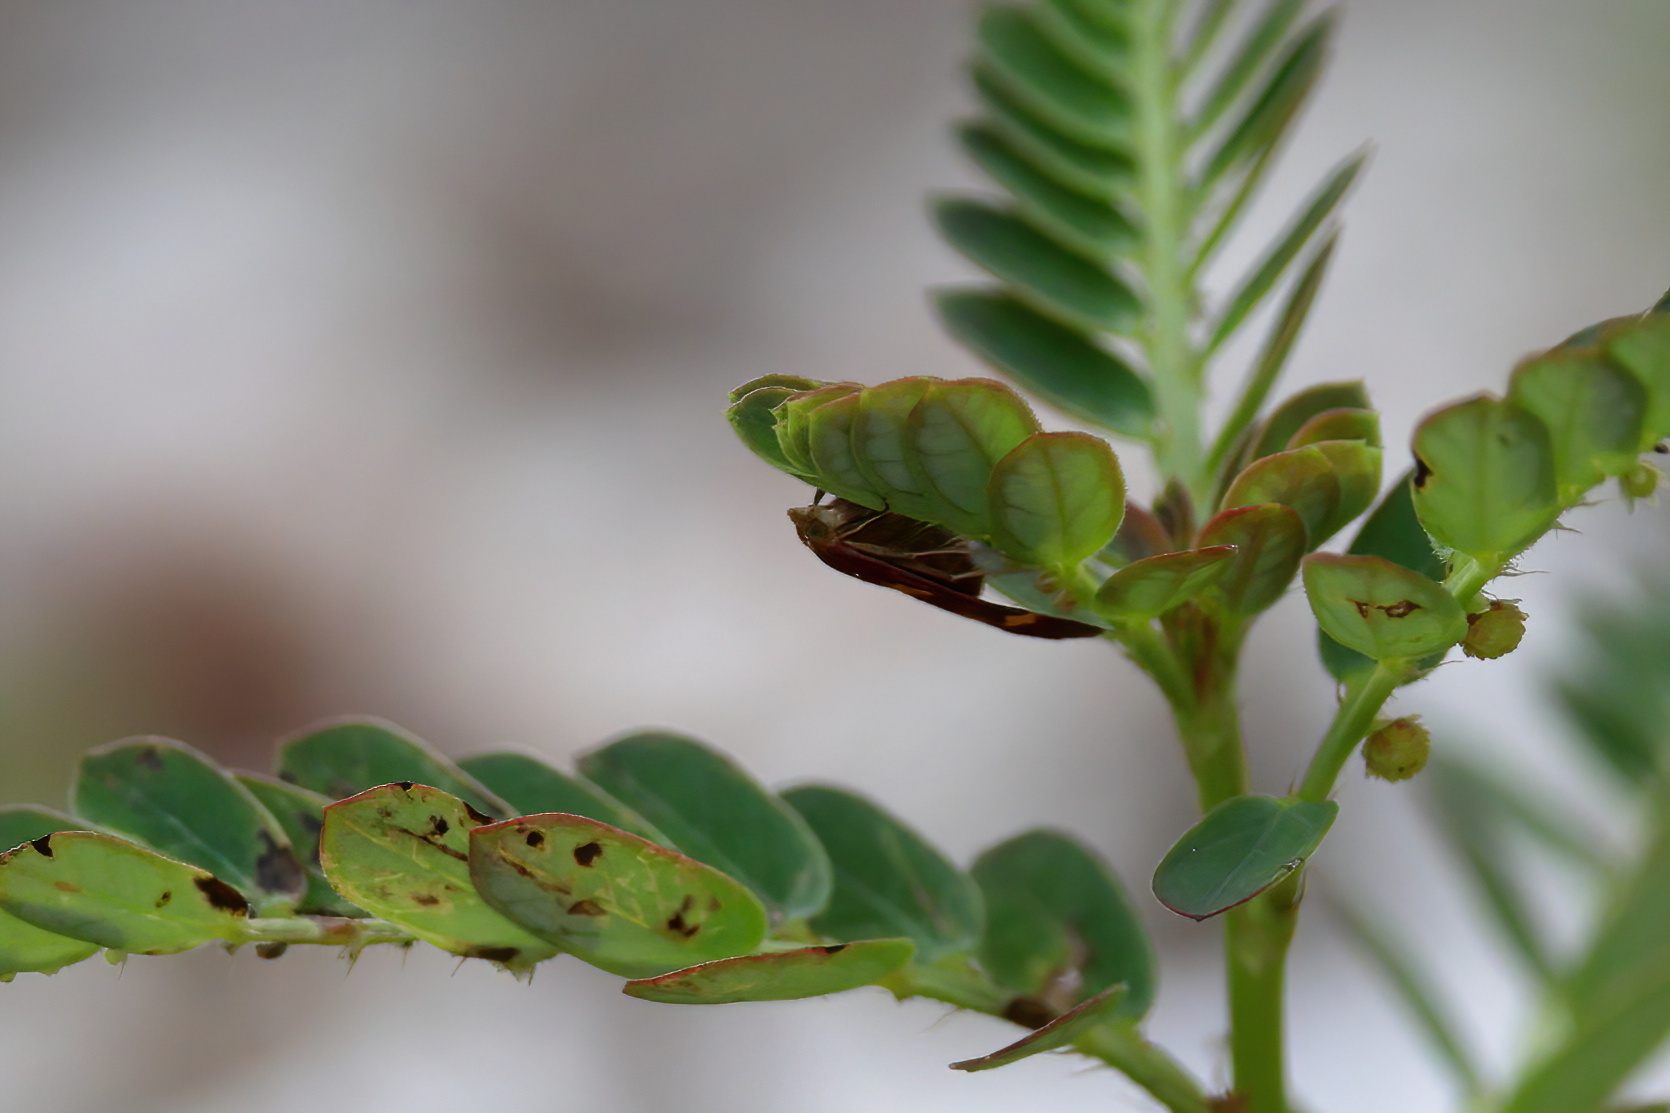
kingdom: Animalia
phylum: Arthropoda
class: Insecta
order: Lepidoptera
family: Crambidae
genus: Pyrausta
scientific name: Pyrausta tyralis
